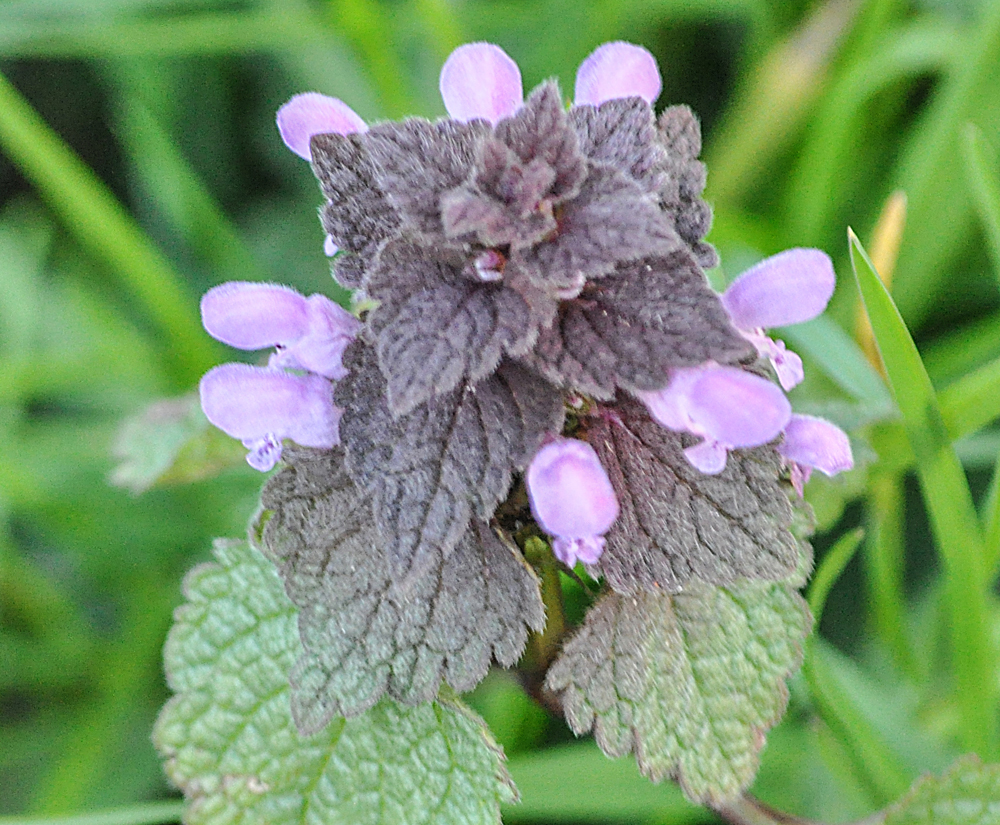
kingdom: Plantae
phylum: Tracheophyta
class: Magnoliopsida
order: Lamiales
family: Lamiaceae
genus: Lamium
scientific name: Lamium purpureum
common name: Red dead-nettle
